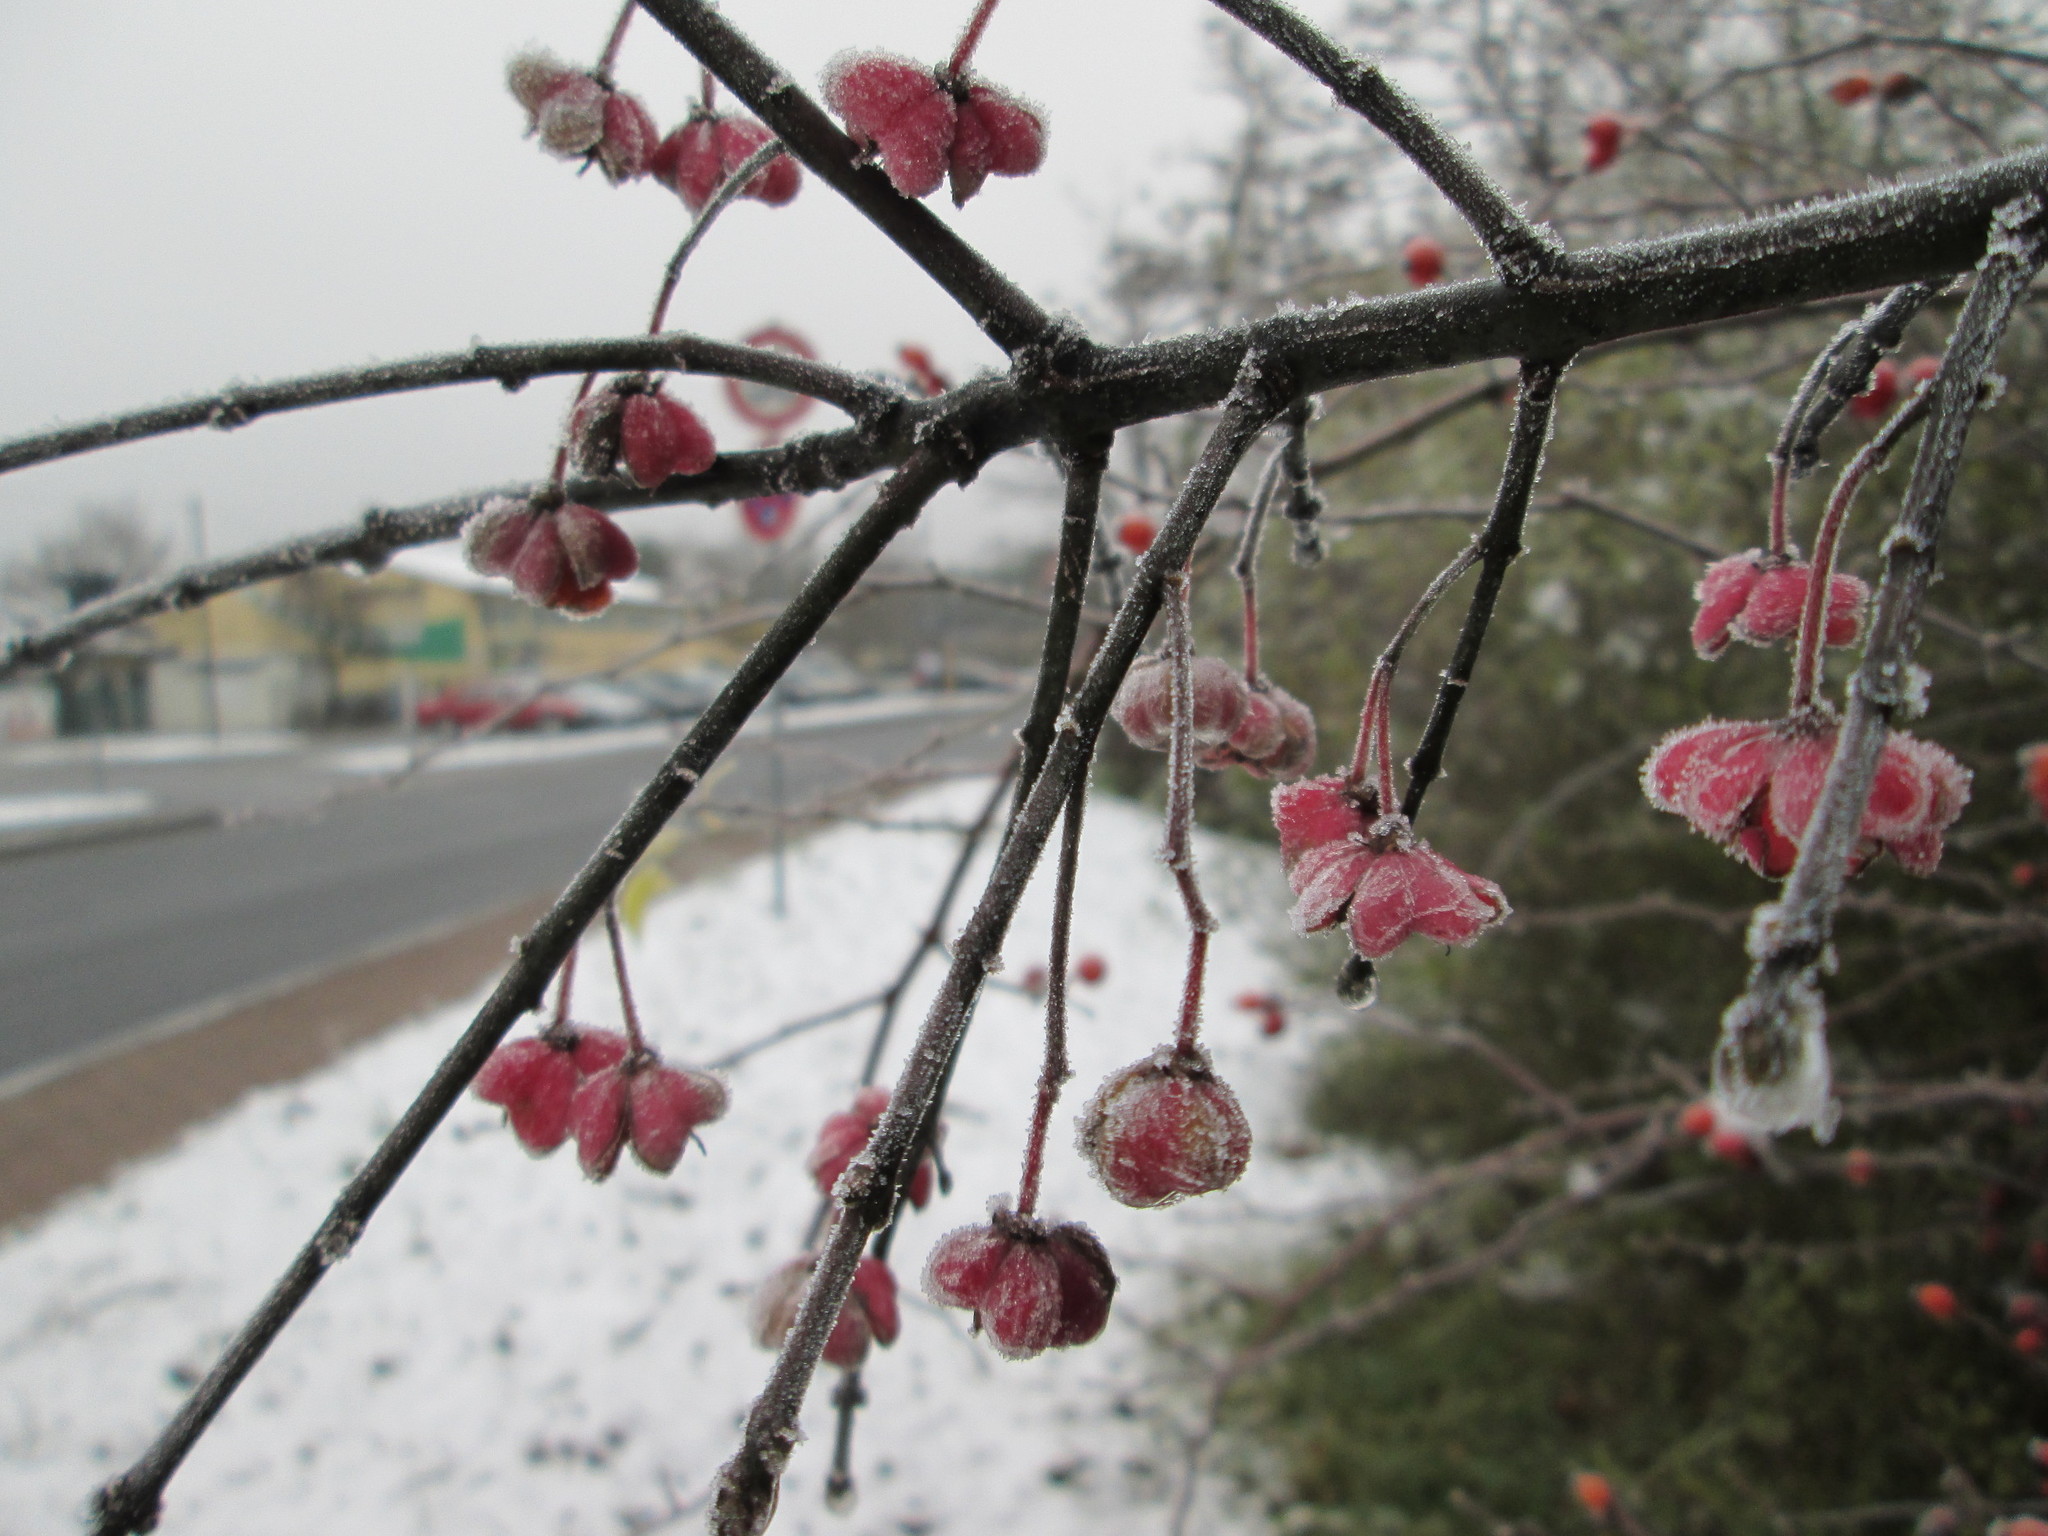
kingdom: Plantae
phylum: Tracheophyta
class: Magnoliopsida
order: Celastrales
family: Celastraceae
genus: Euonymus
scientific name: Euonymus europaeus
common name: Spindle
